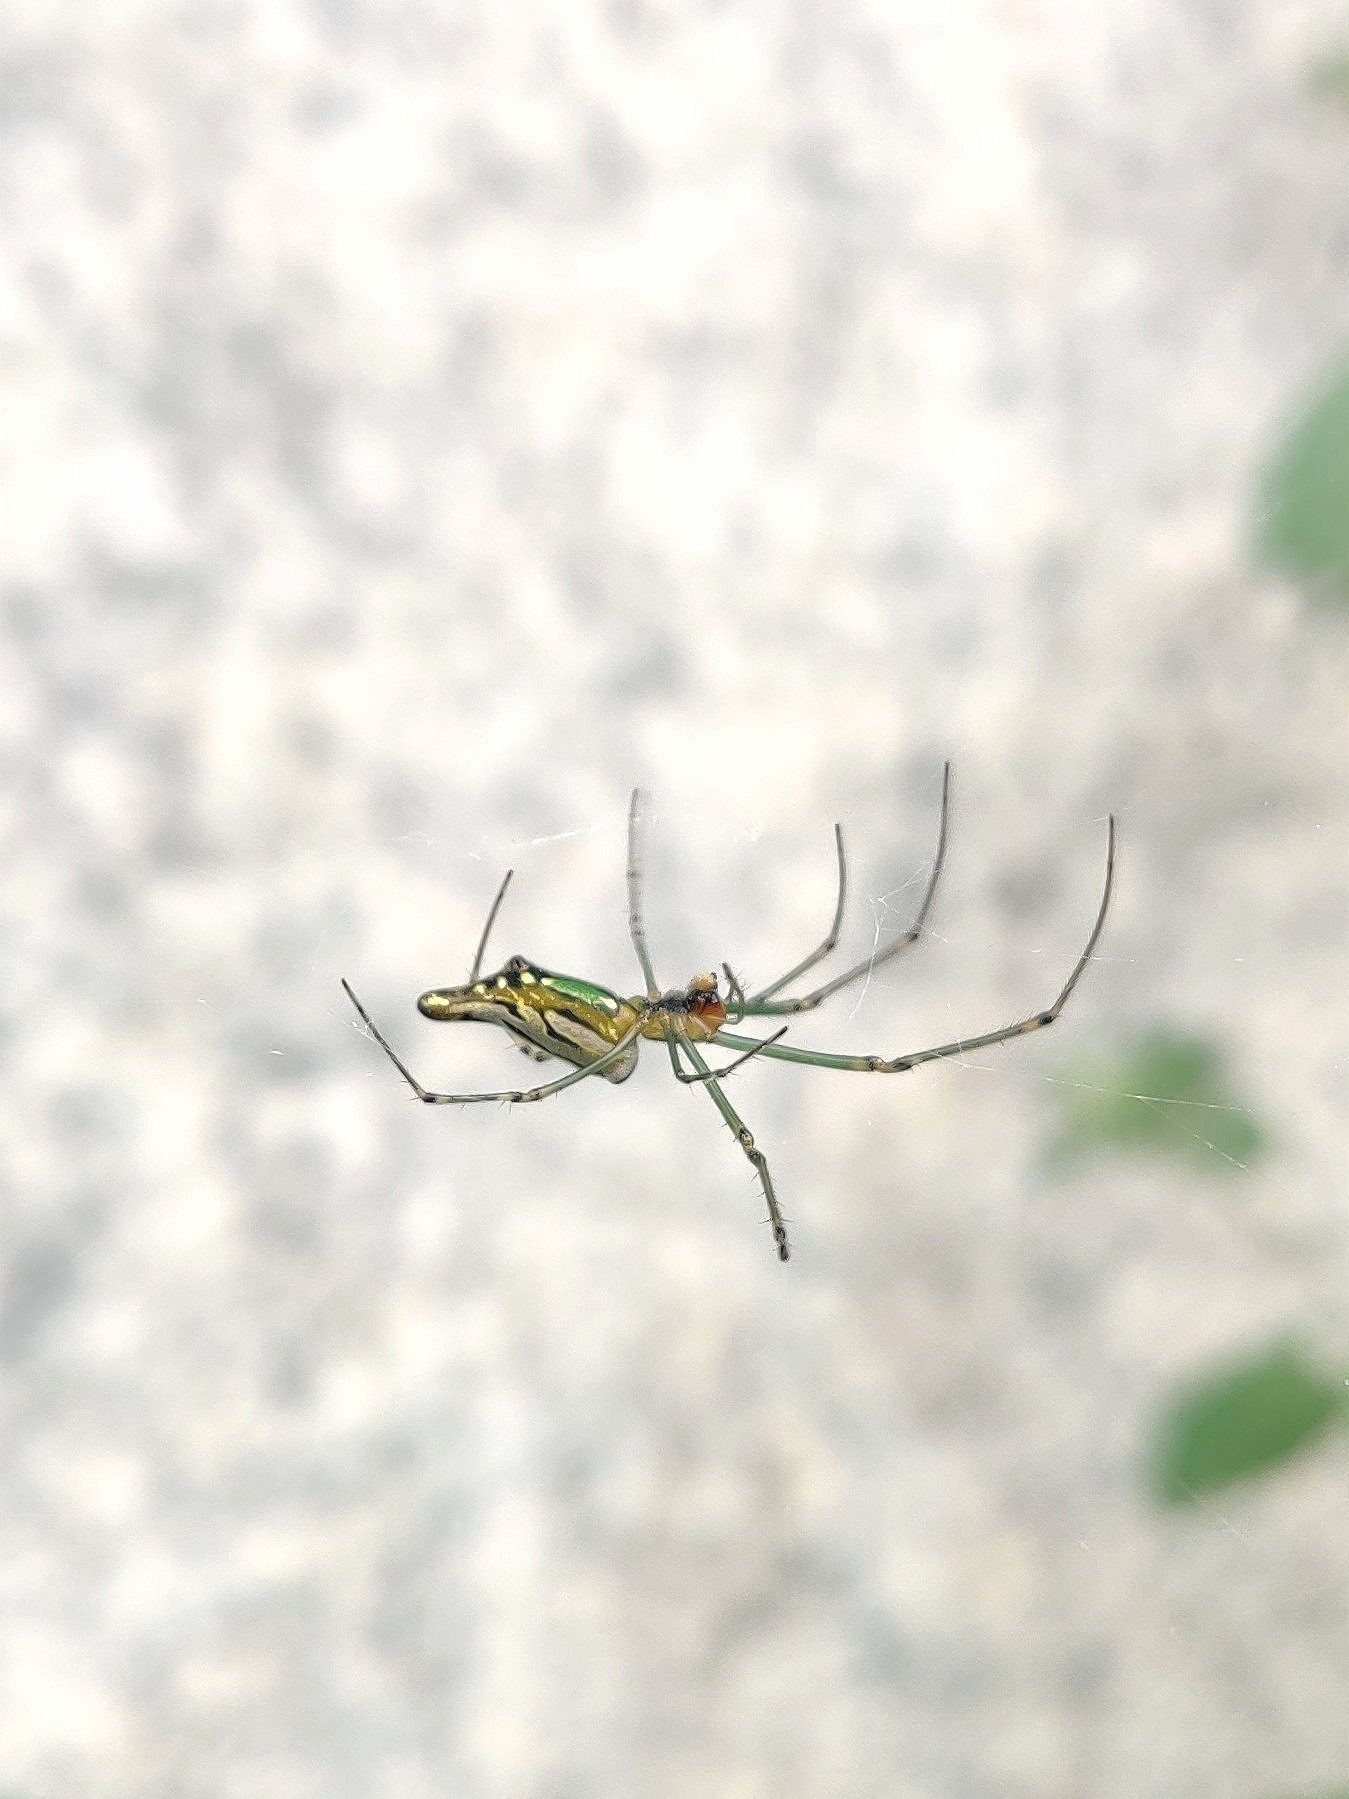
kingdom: Animalia
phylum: Arthropoda
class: Arachnida
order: Araneae
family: Tetragnathidae
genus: Leucauge
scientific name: Leucauge decorata
